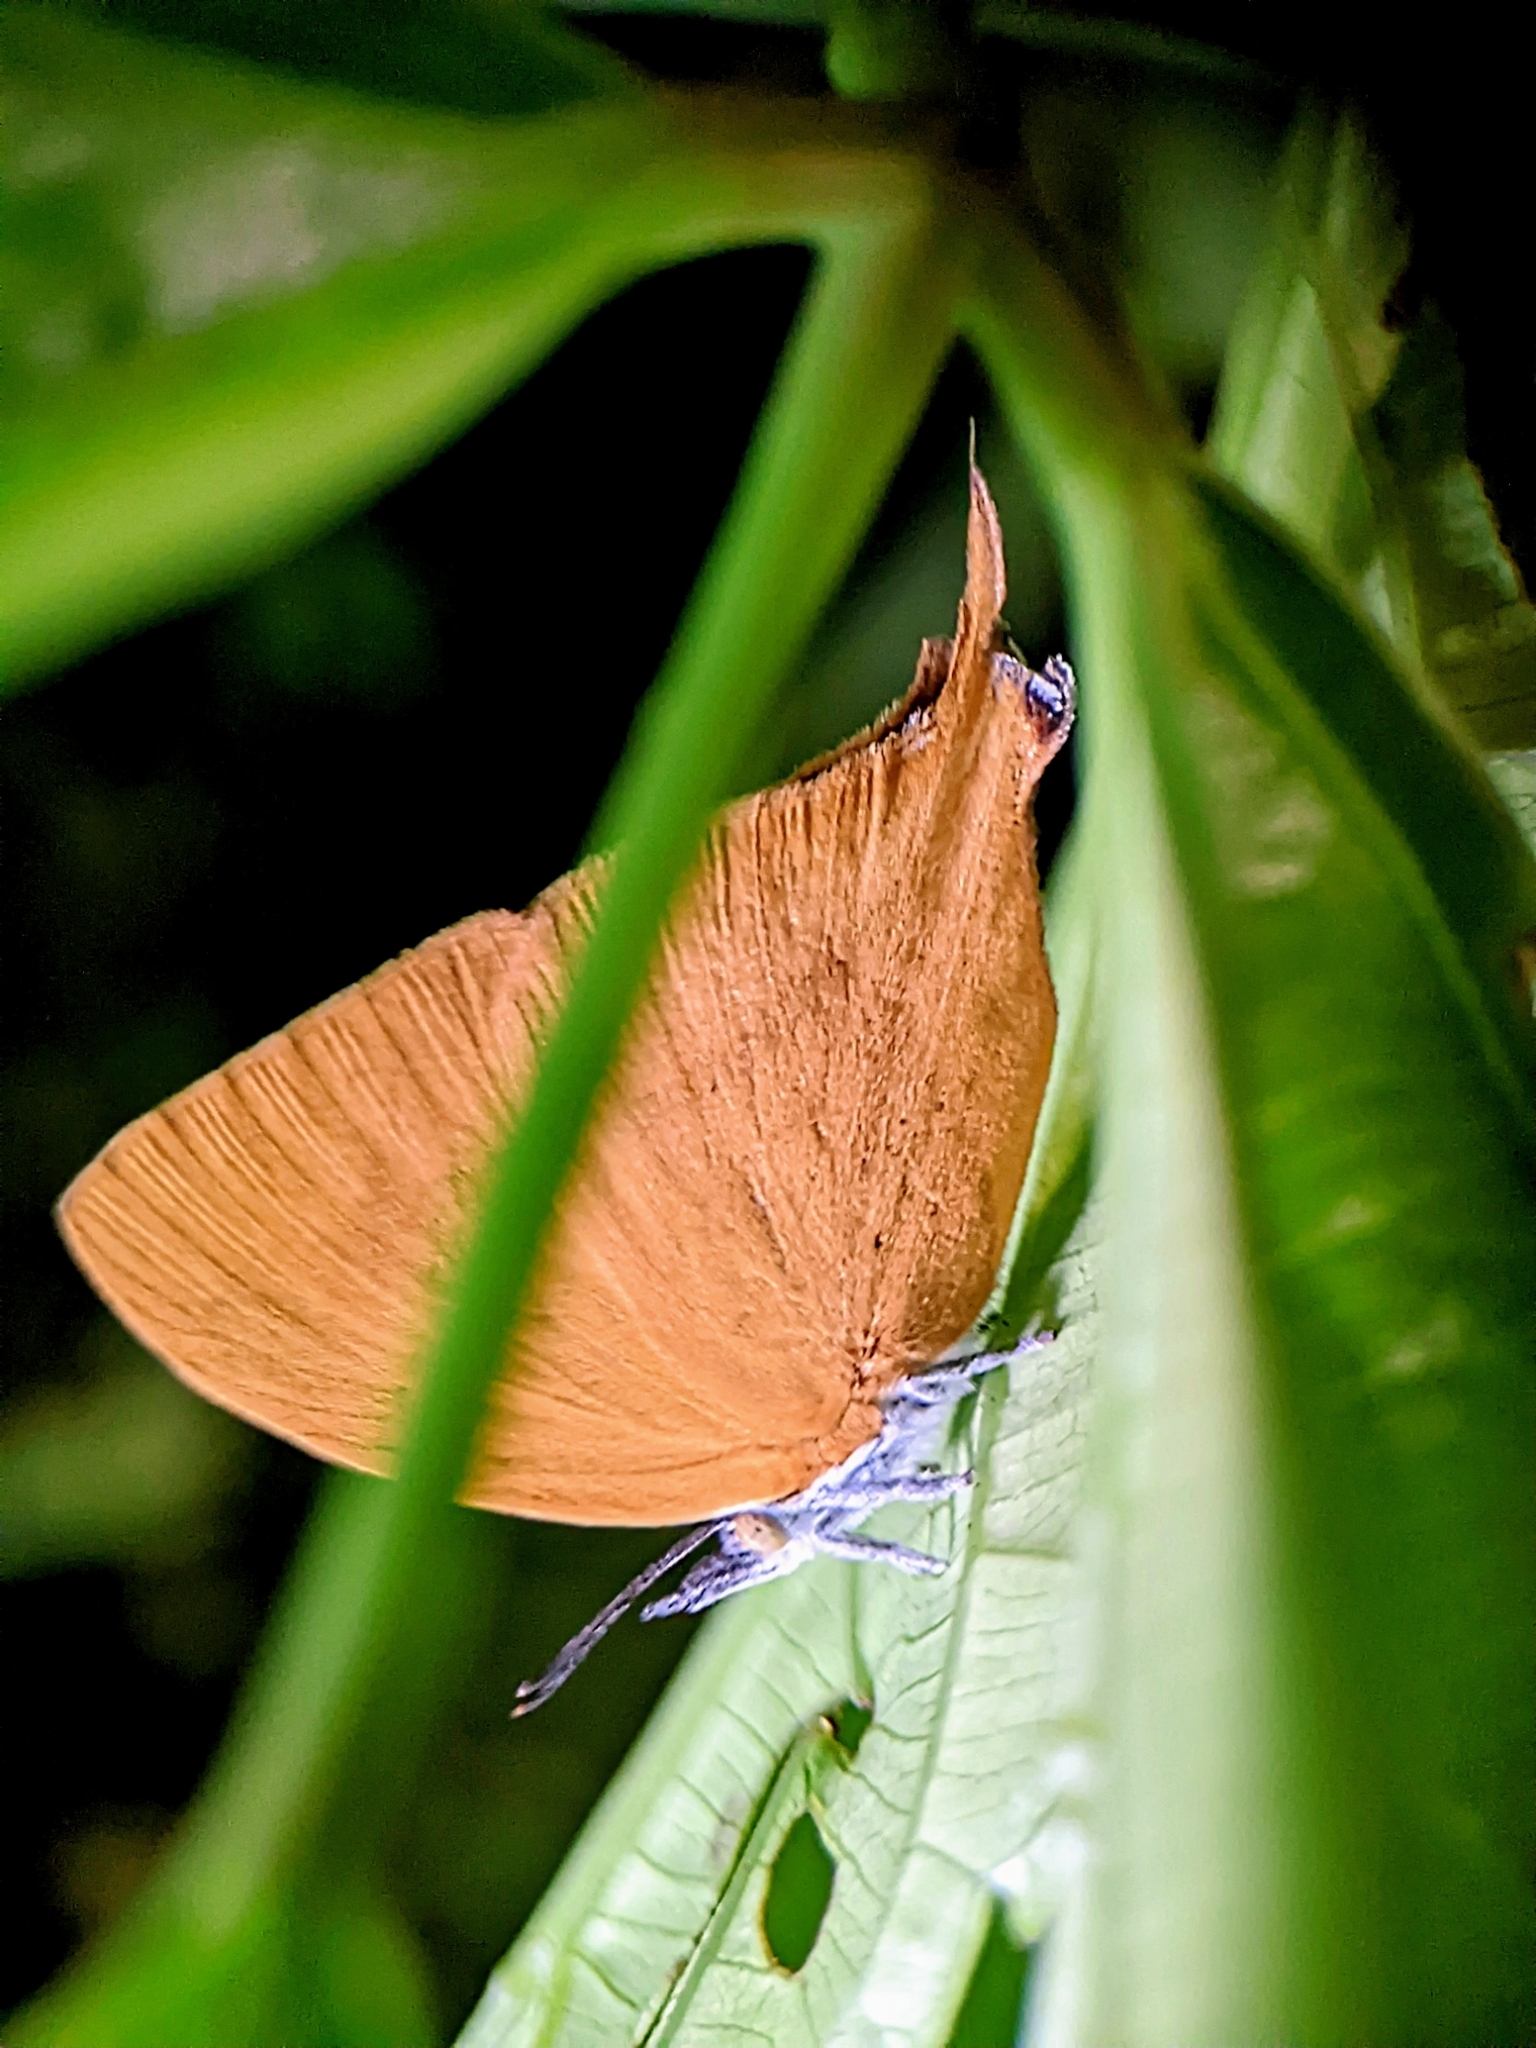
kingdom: Animalia
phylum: Arthropoda
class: Insecta
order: Lepidoptera
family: Lycaenidae
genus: Loxura
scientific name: Loxura atymnus
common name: Common yamfly
